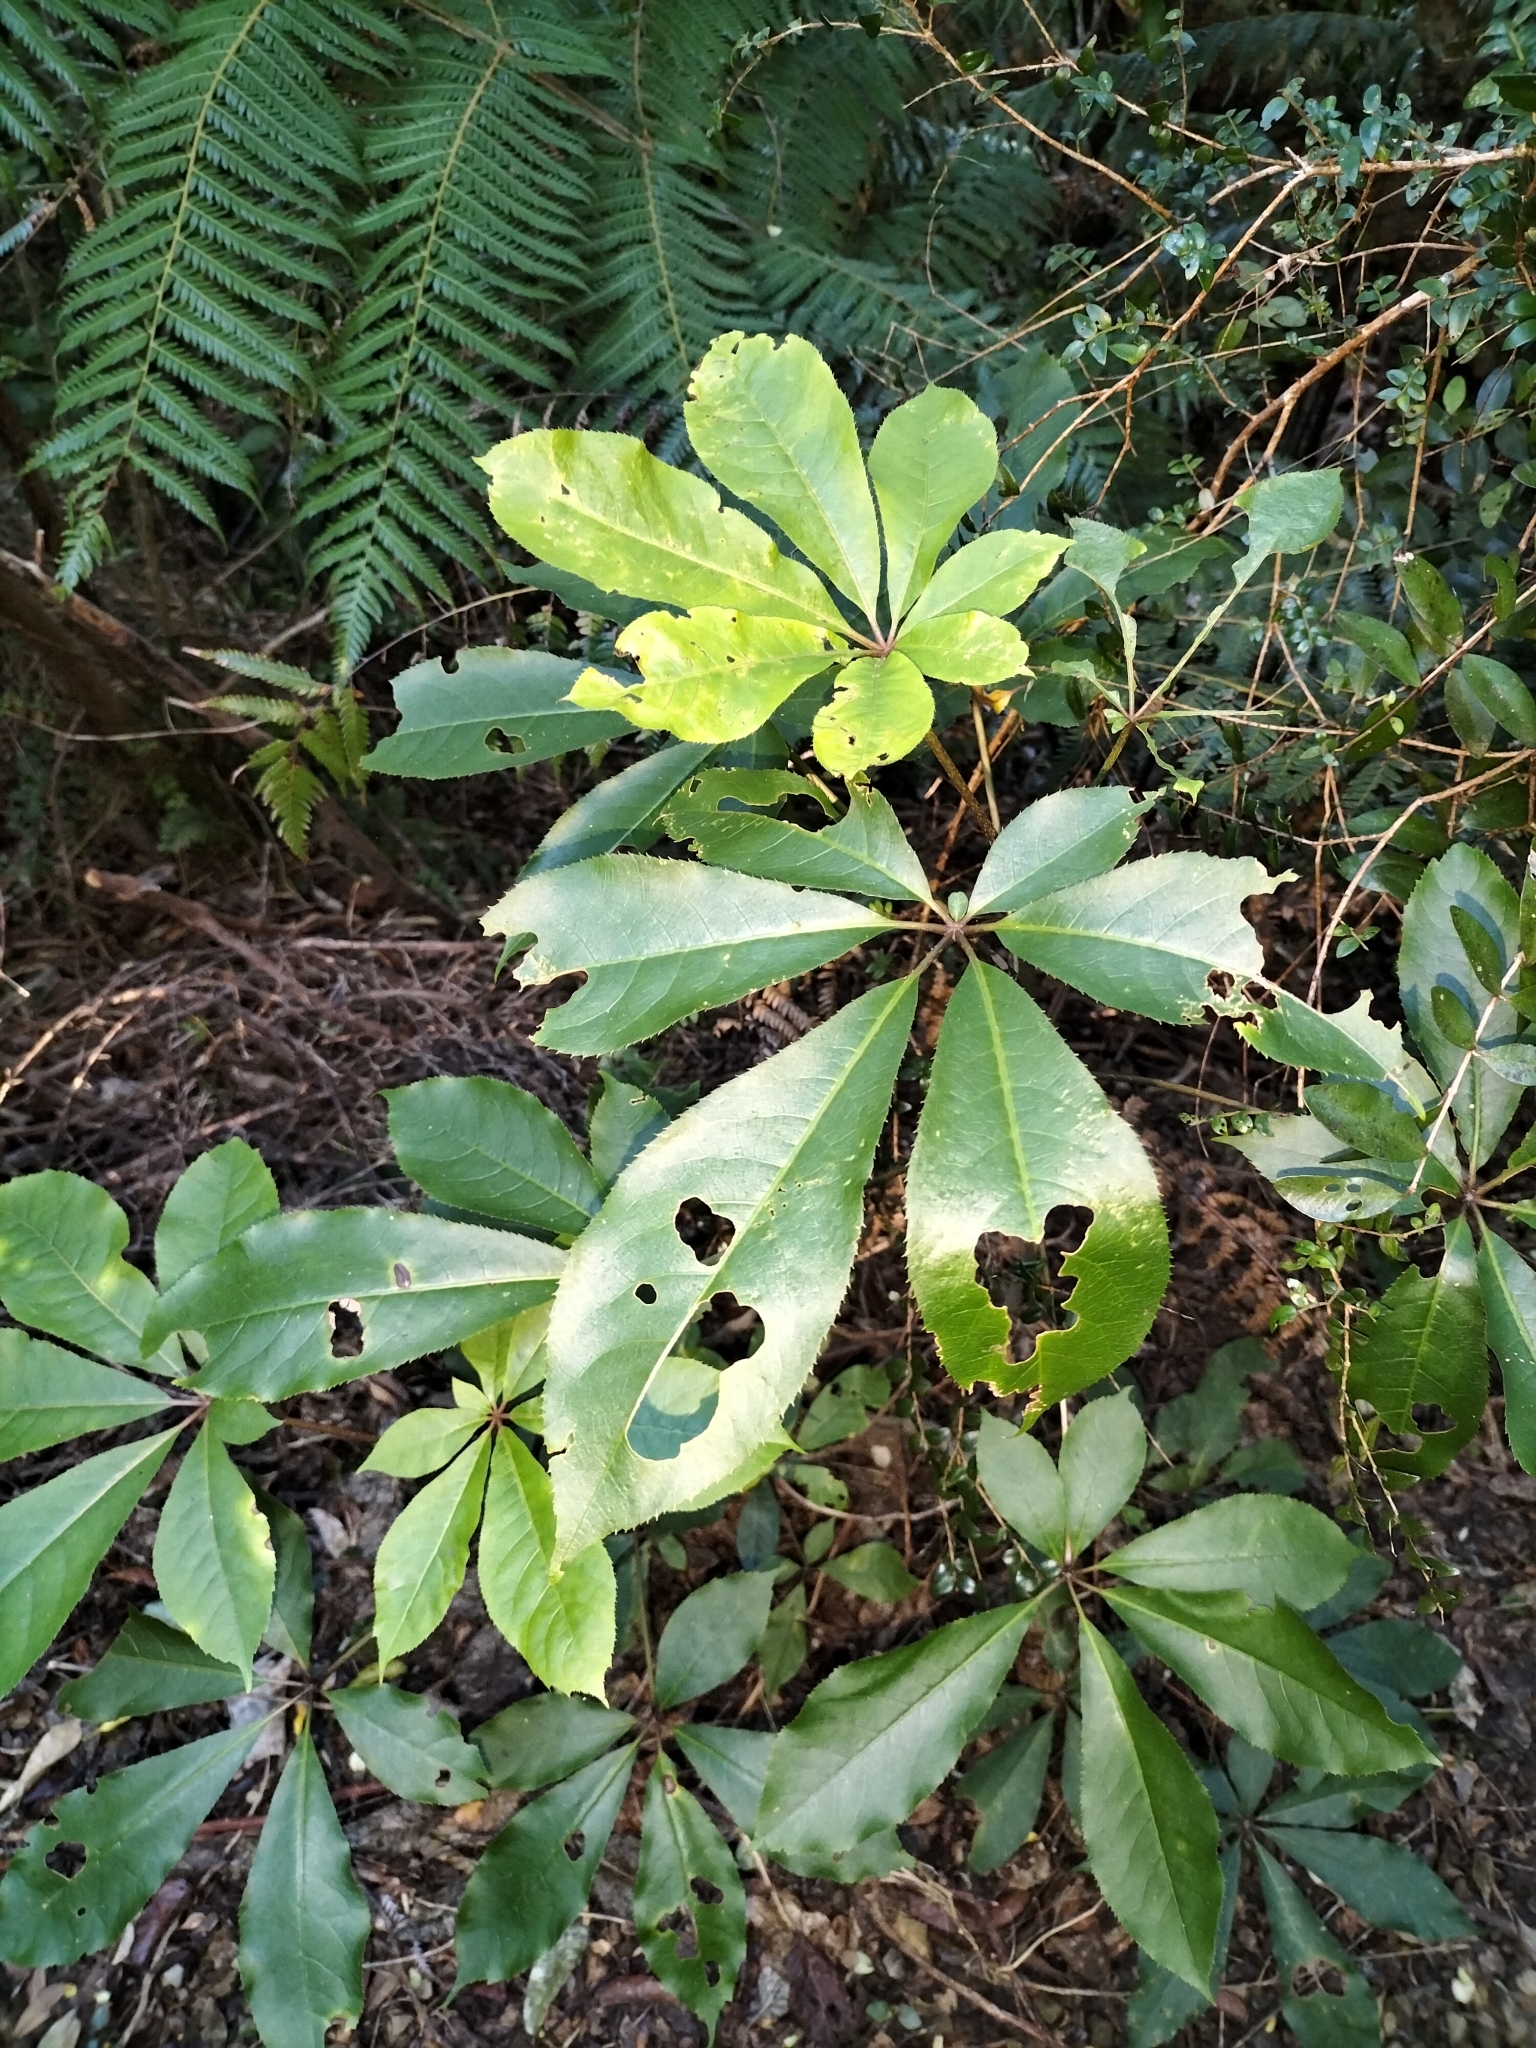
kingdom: Plantae
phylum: Tracheophyta
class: Magnoliopsida
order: Apiales
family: Araliaceae
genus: Schefflera
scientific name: Schefflera digitata
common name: Pate
